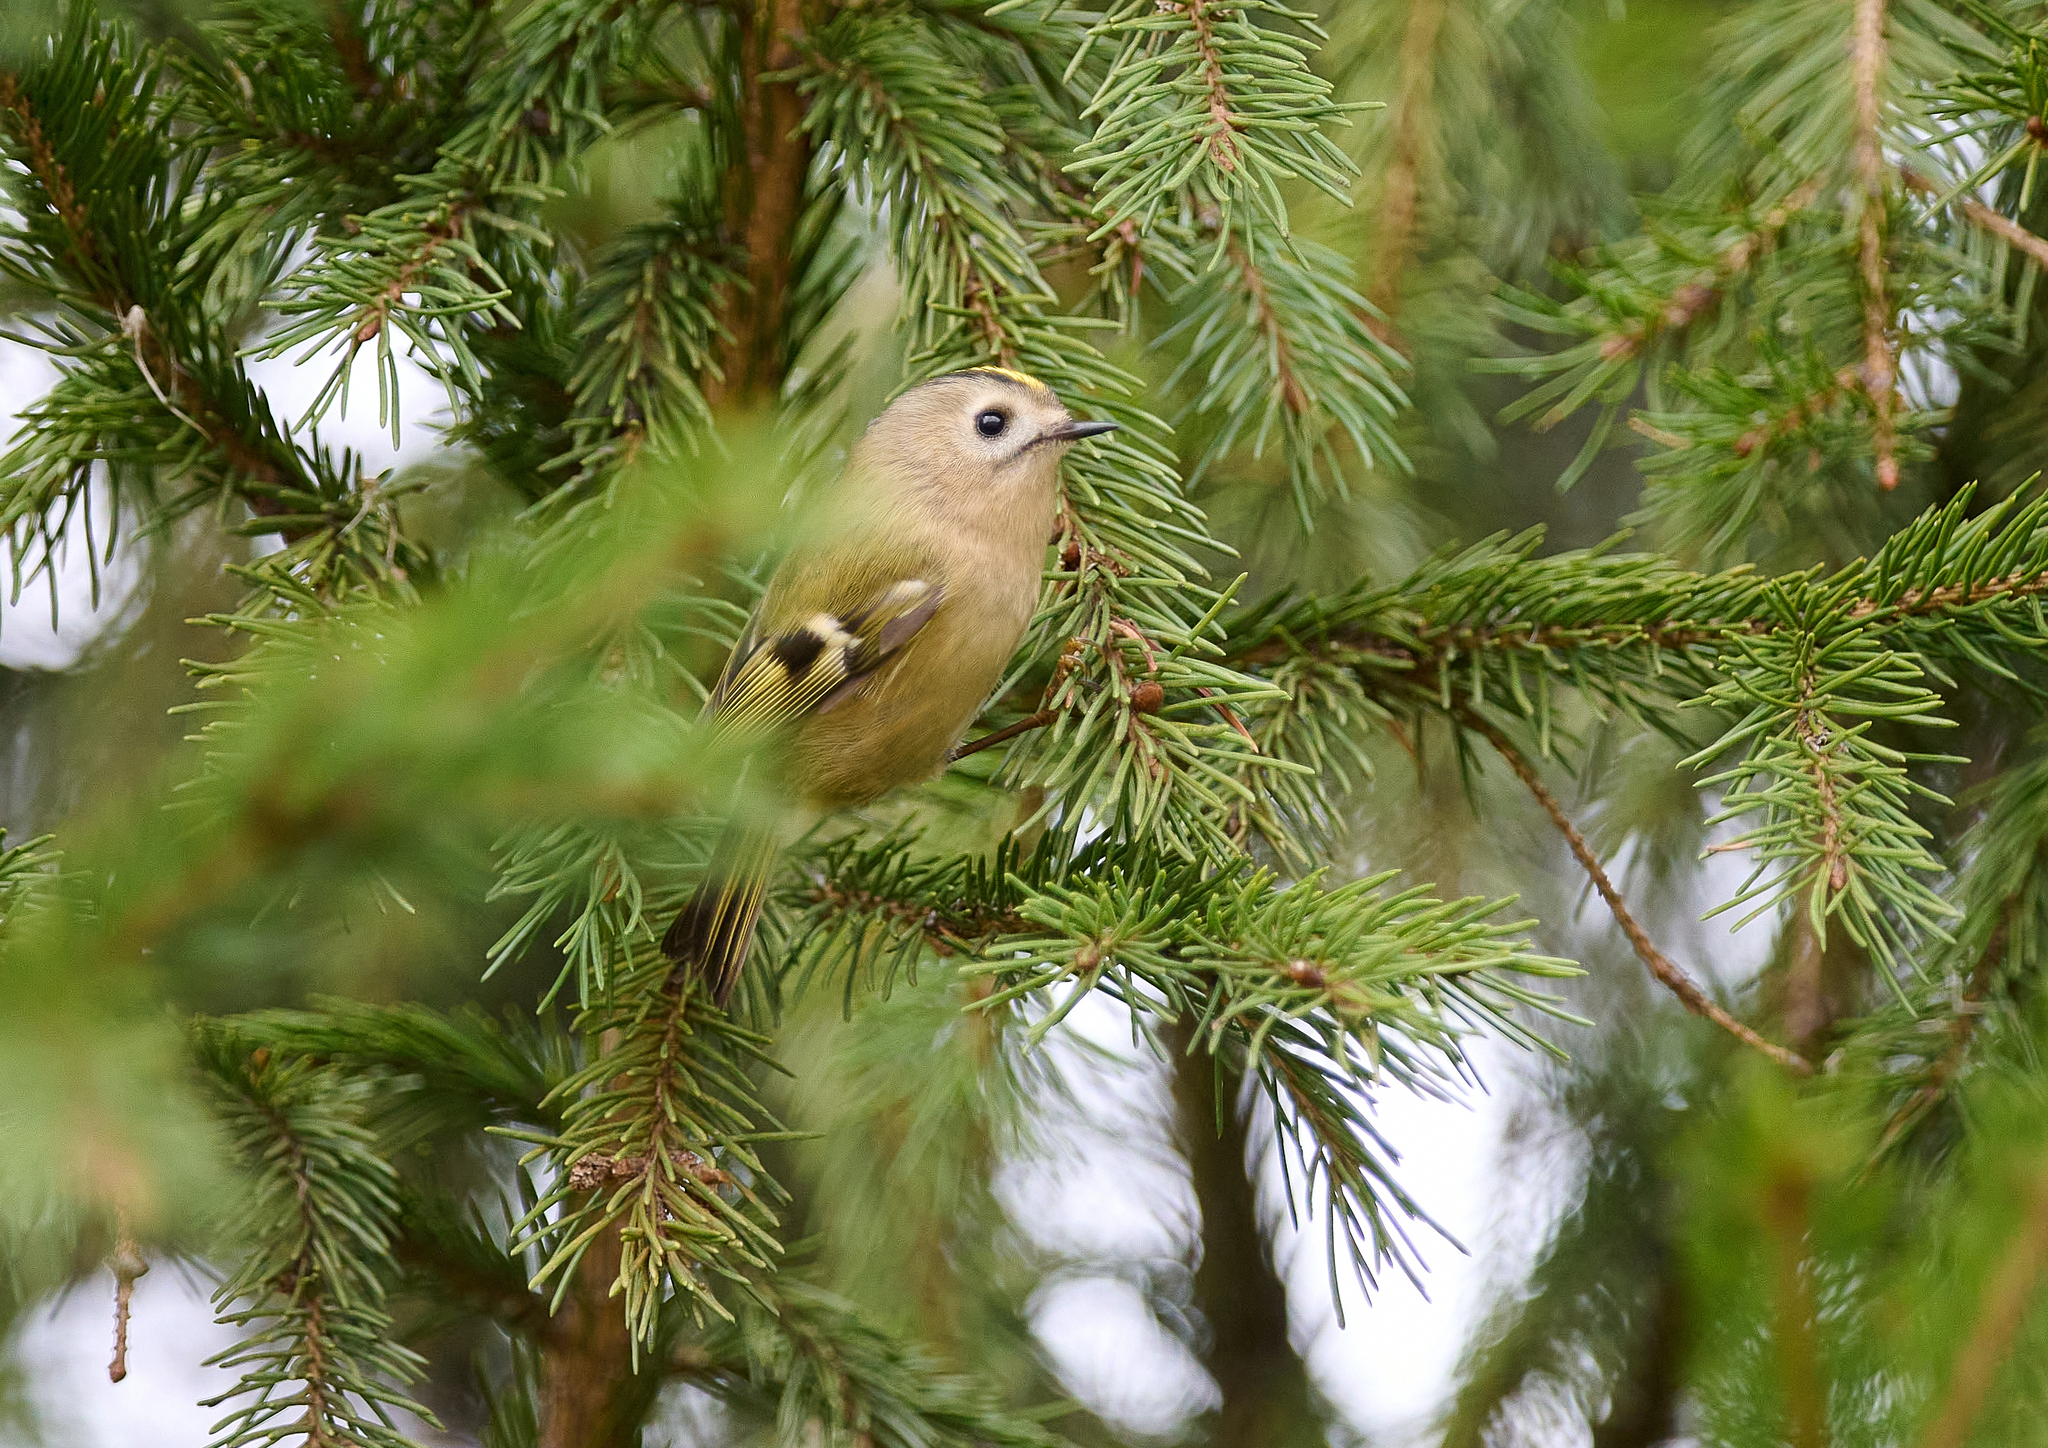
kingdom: Animalia
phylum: Chordata
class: Aves
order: Passeriformes
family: Regulidae
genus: Regulus
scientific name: Regulus regulus
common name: Goldcrest
